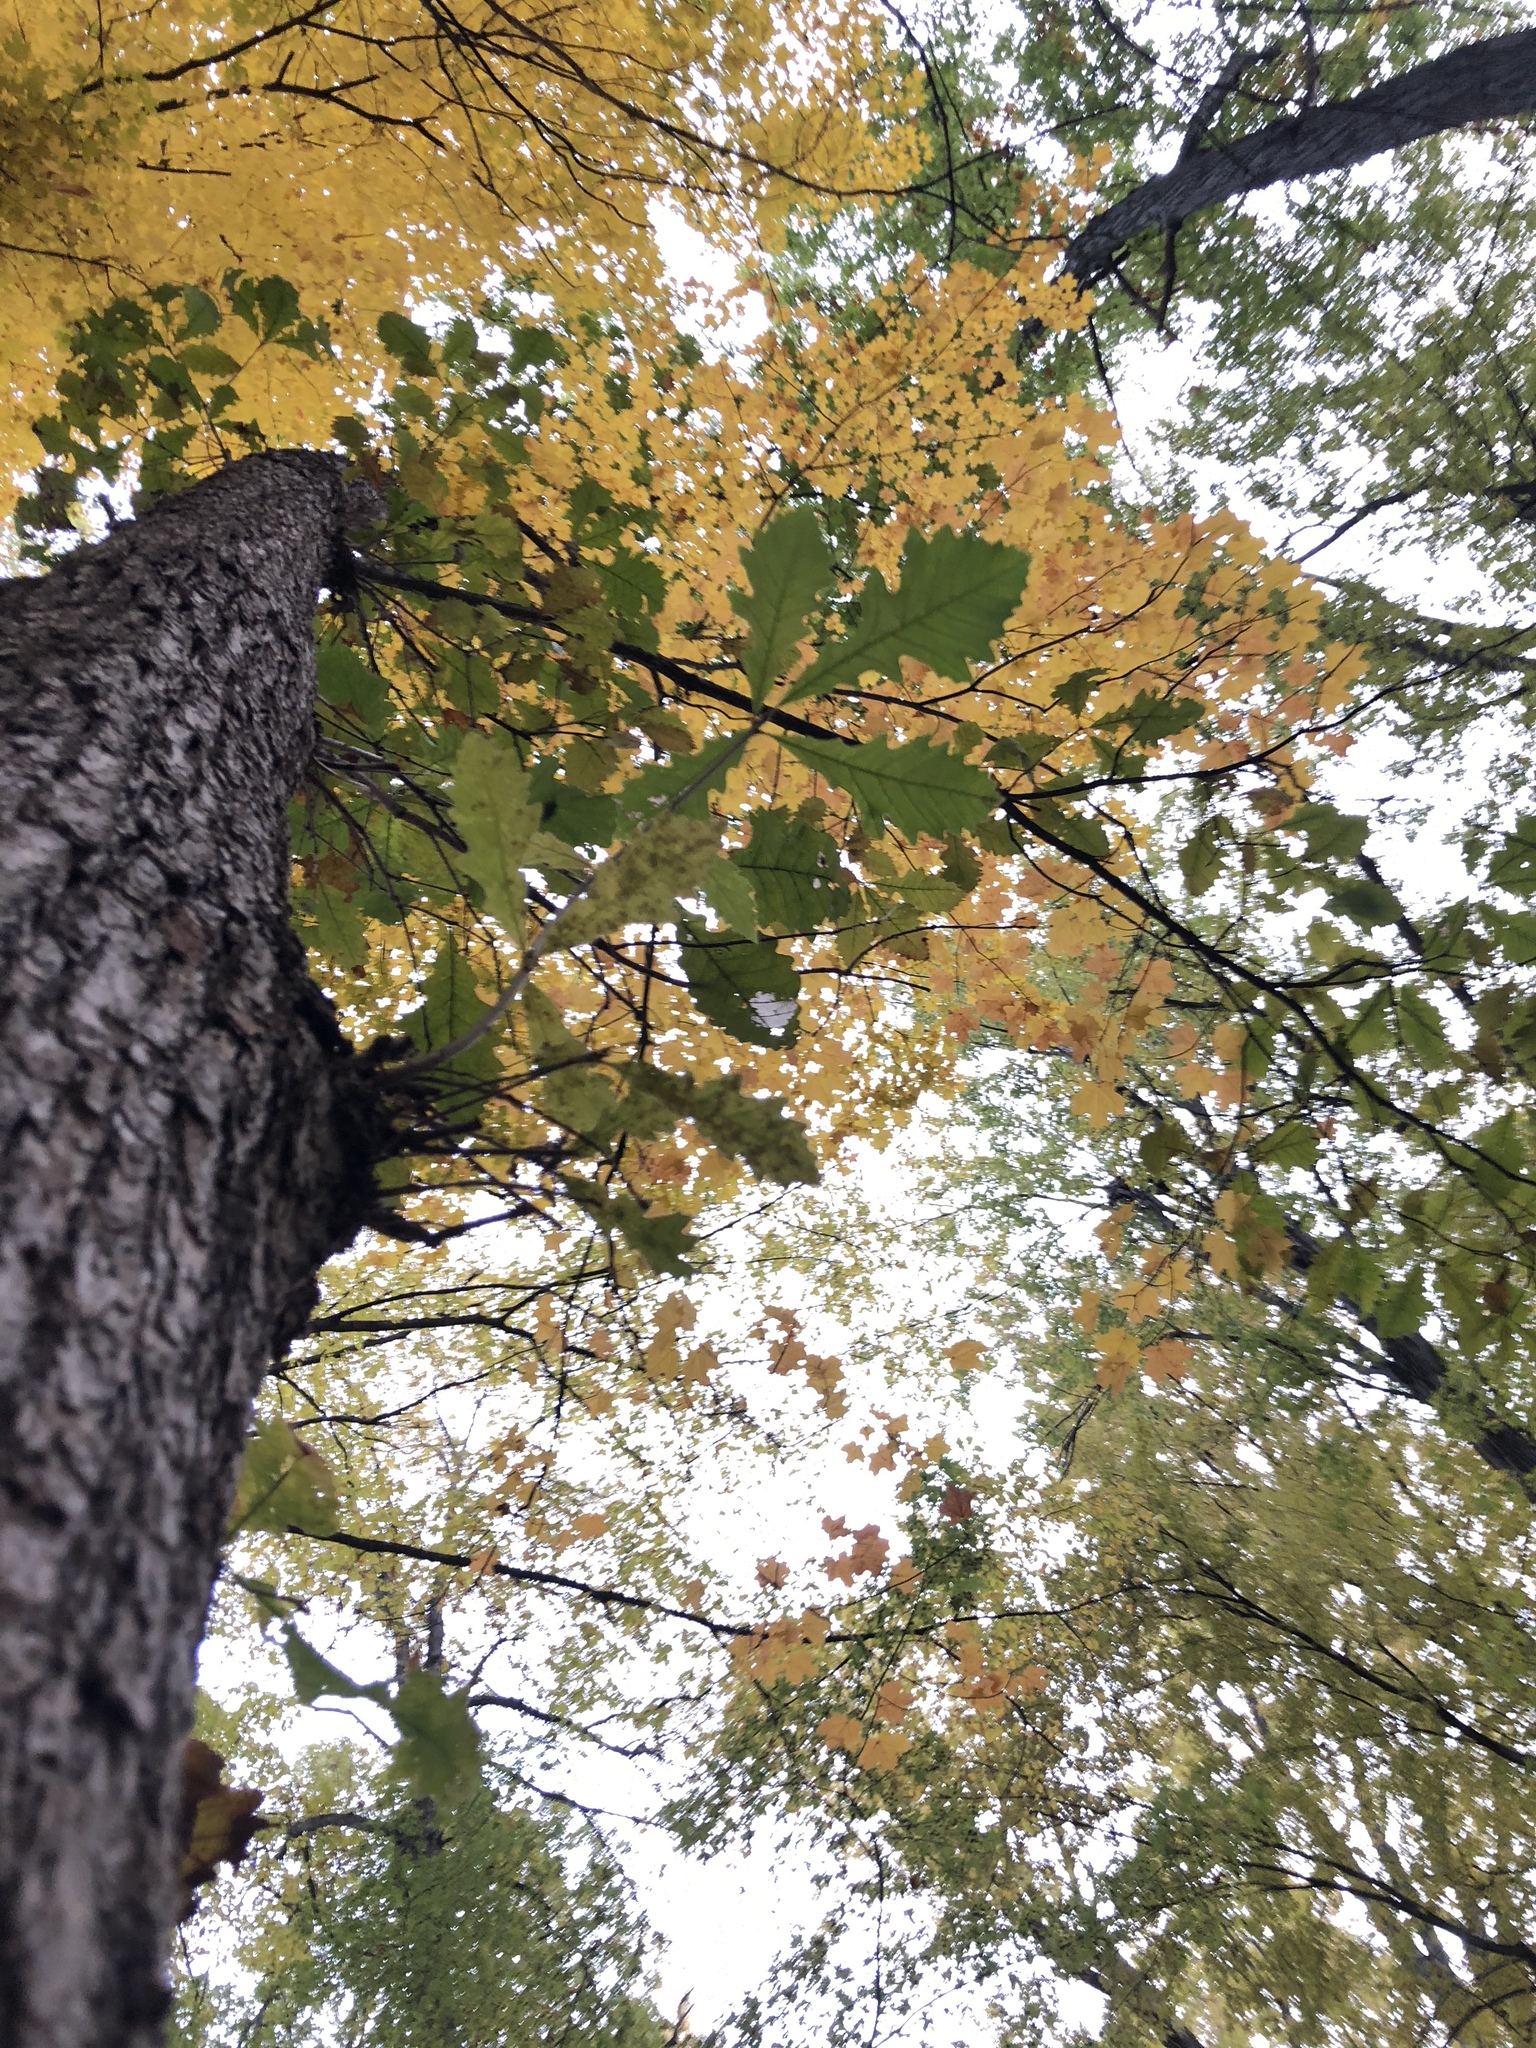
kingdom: Plantae
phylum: Tracheophyta
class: Magnoliopsida
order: Fagales
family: Fagaceae
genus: Quercus
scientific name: Quercus bicolor
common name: Swamp white oak
